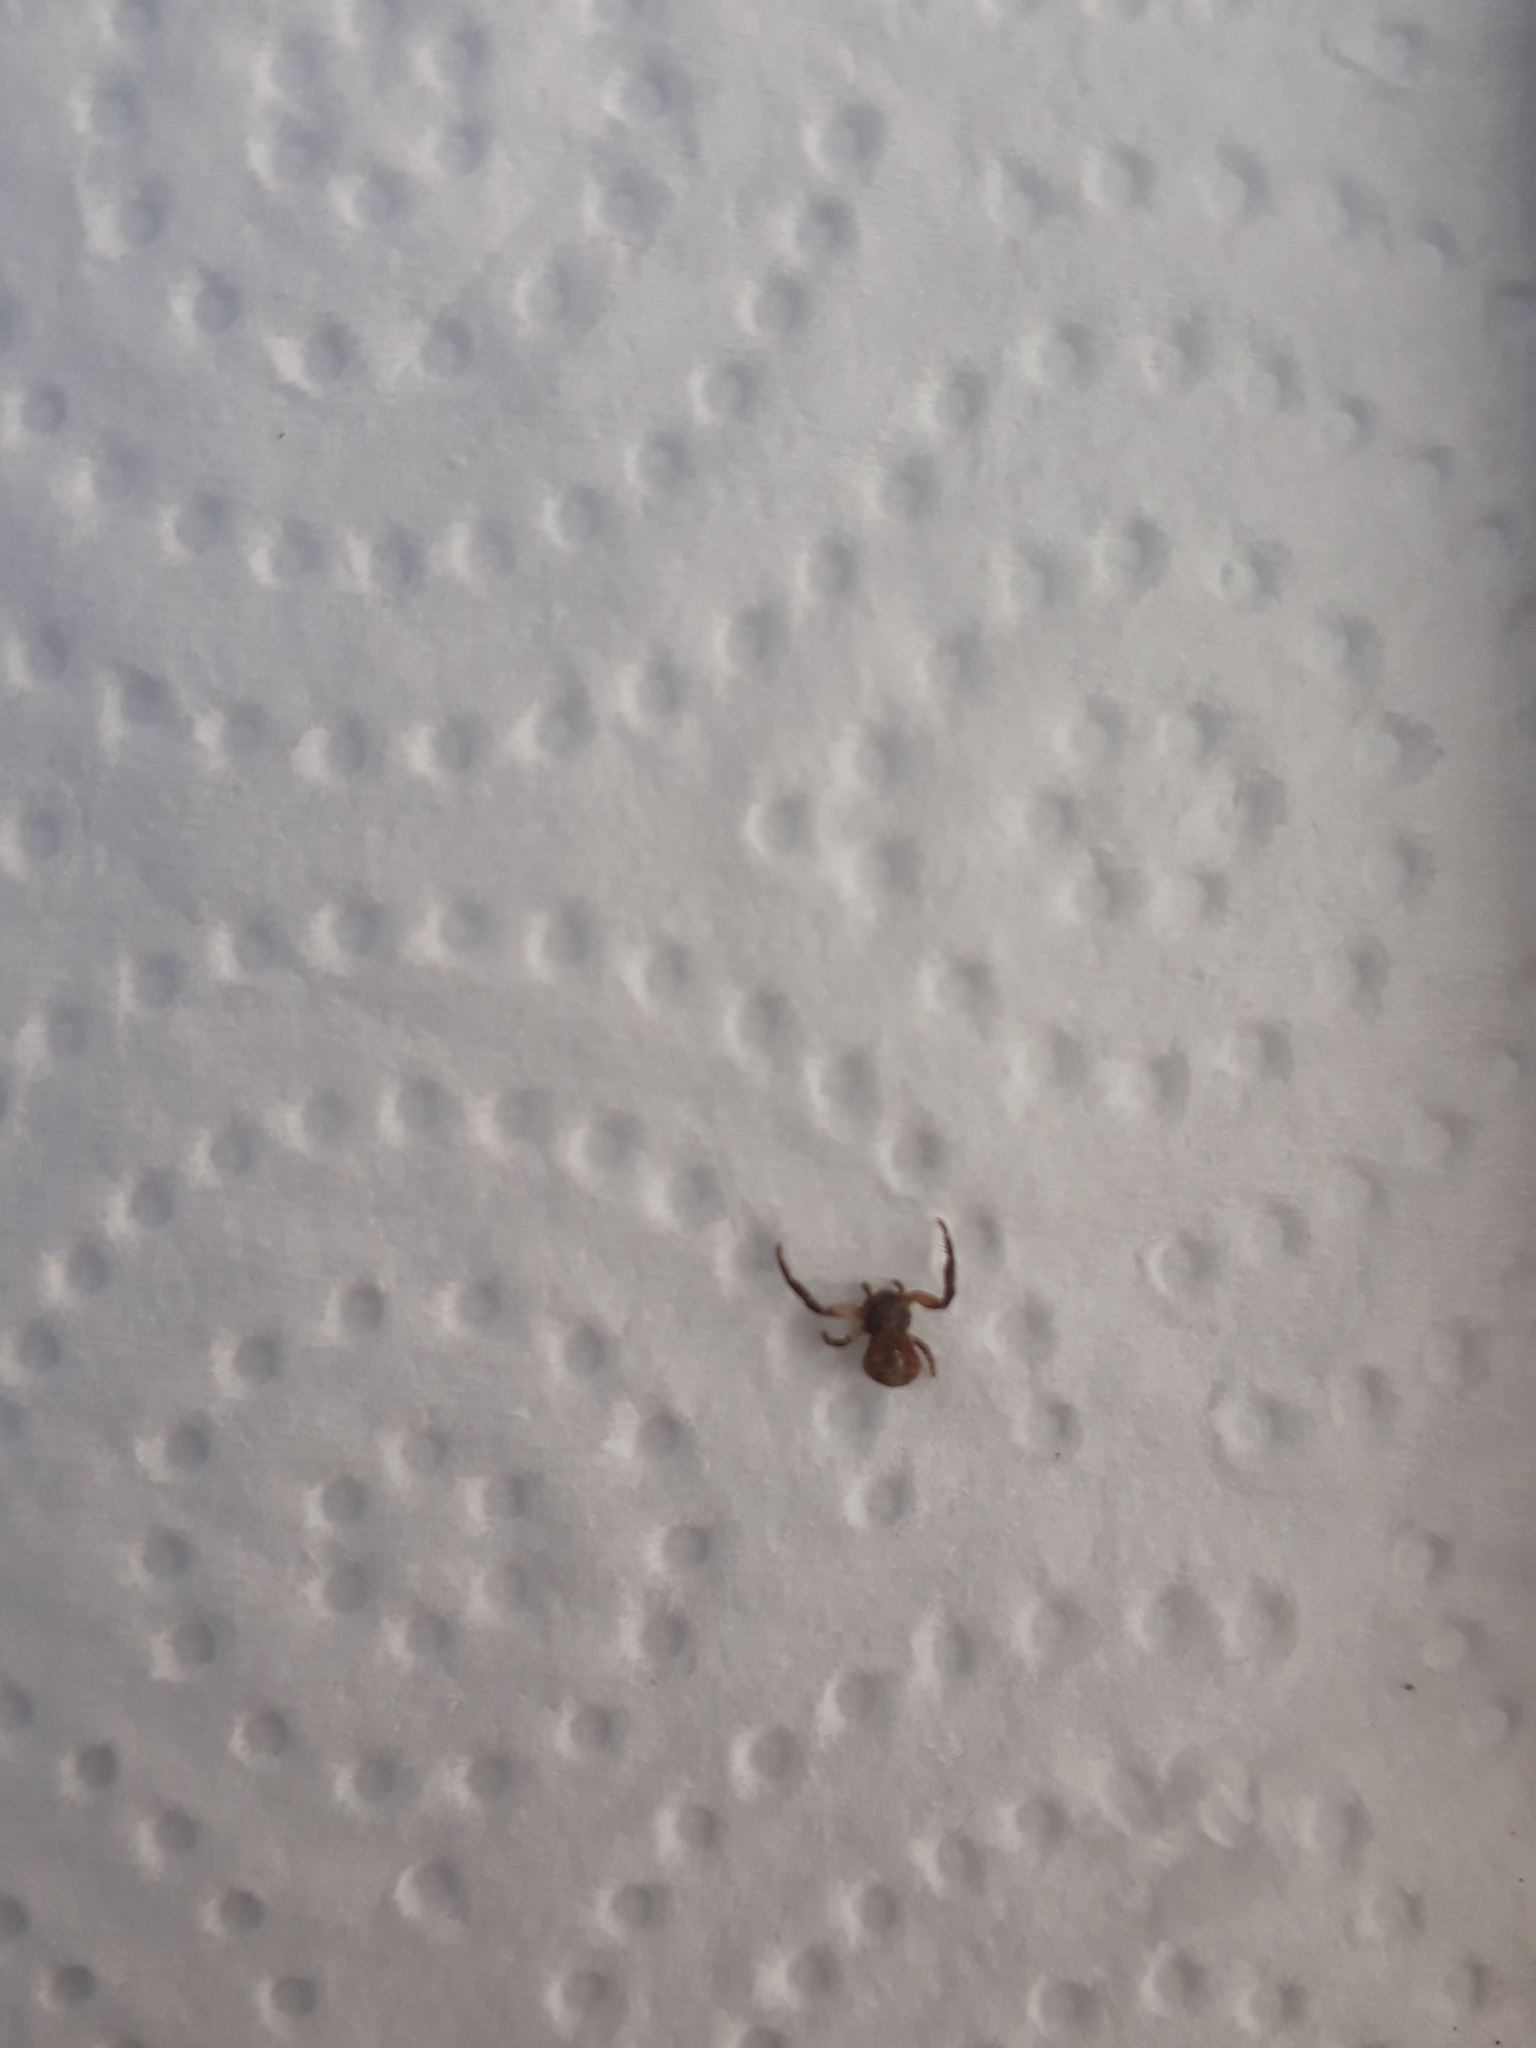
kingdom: Animalia
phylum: Arthropoda
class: Arachnida
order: Araneae
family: Thomisidae
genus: Misumenoides
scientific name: Misumenoides athleticus
